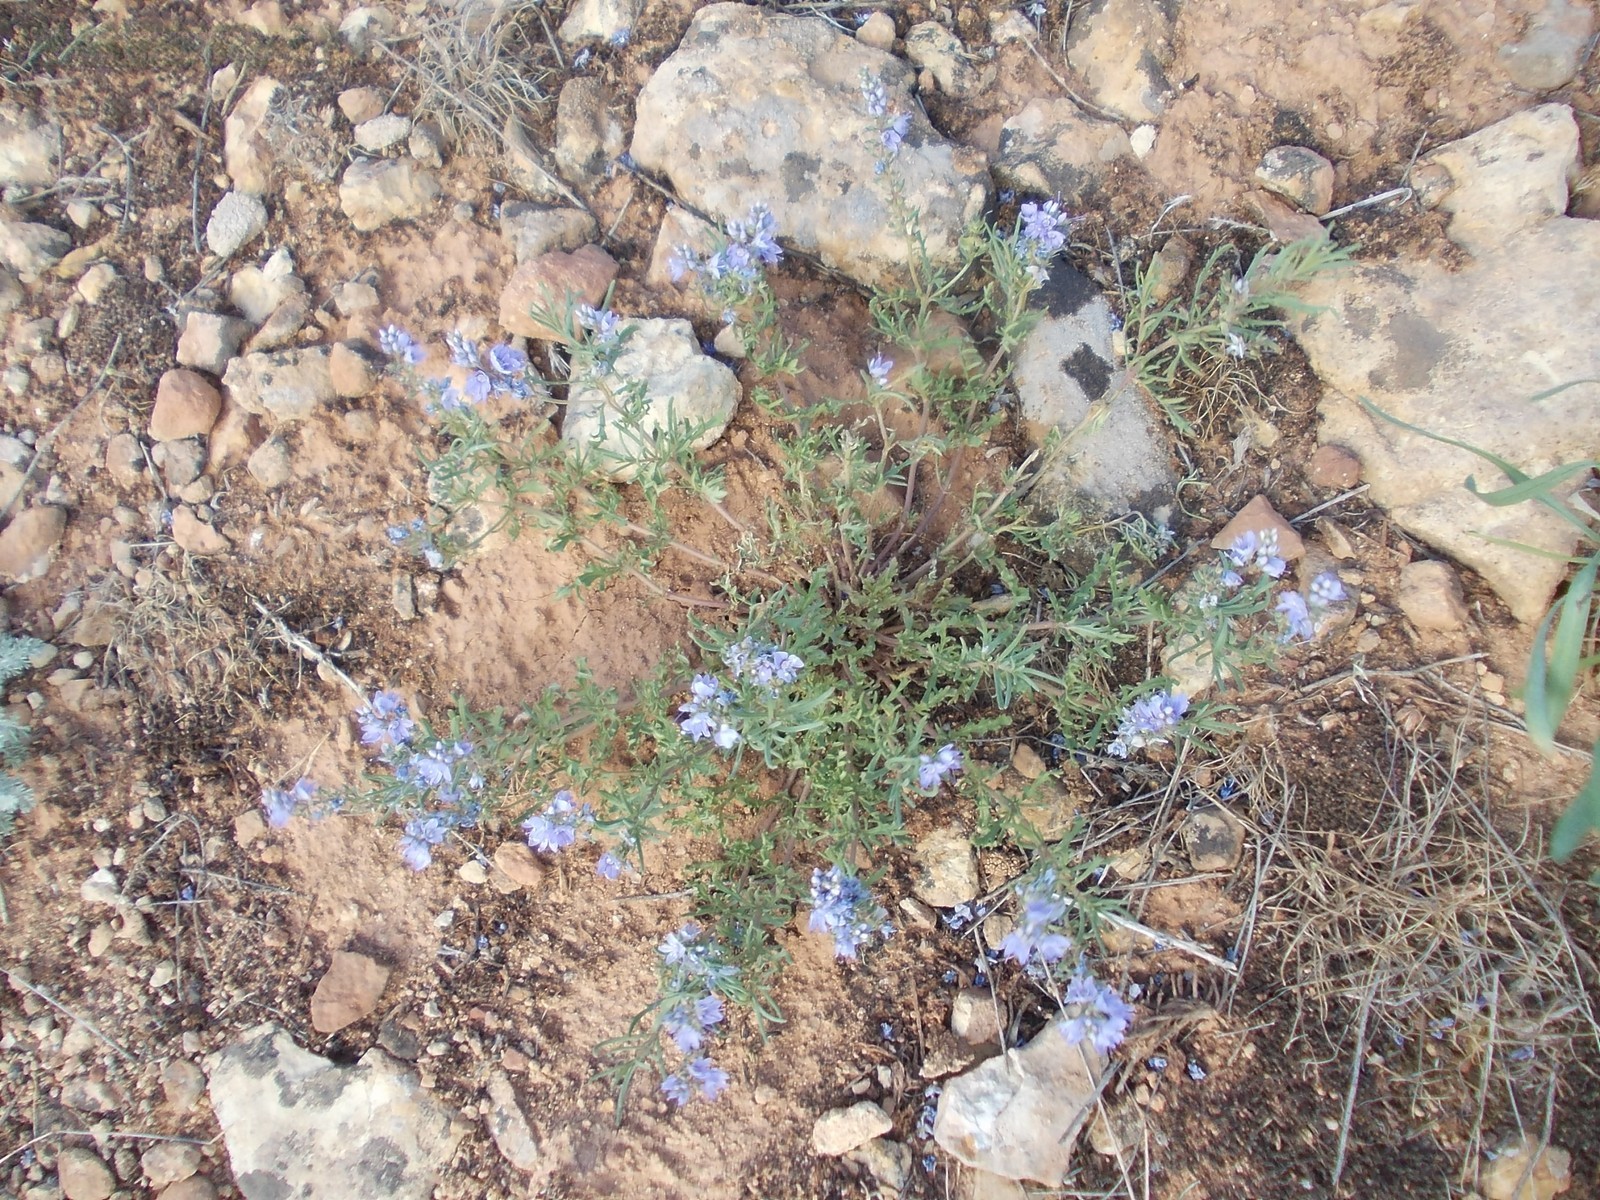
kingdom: Plantae
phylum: Tracheophyta
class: Magnoliopsida
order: Lamiales
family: Plantaginaceae
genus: Veronica
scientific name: Veronica multifida
